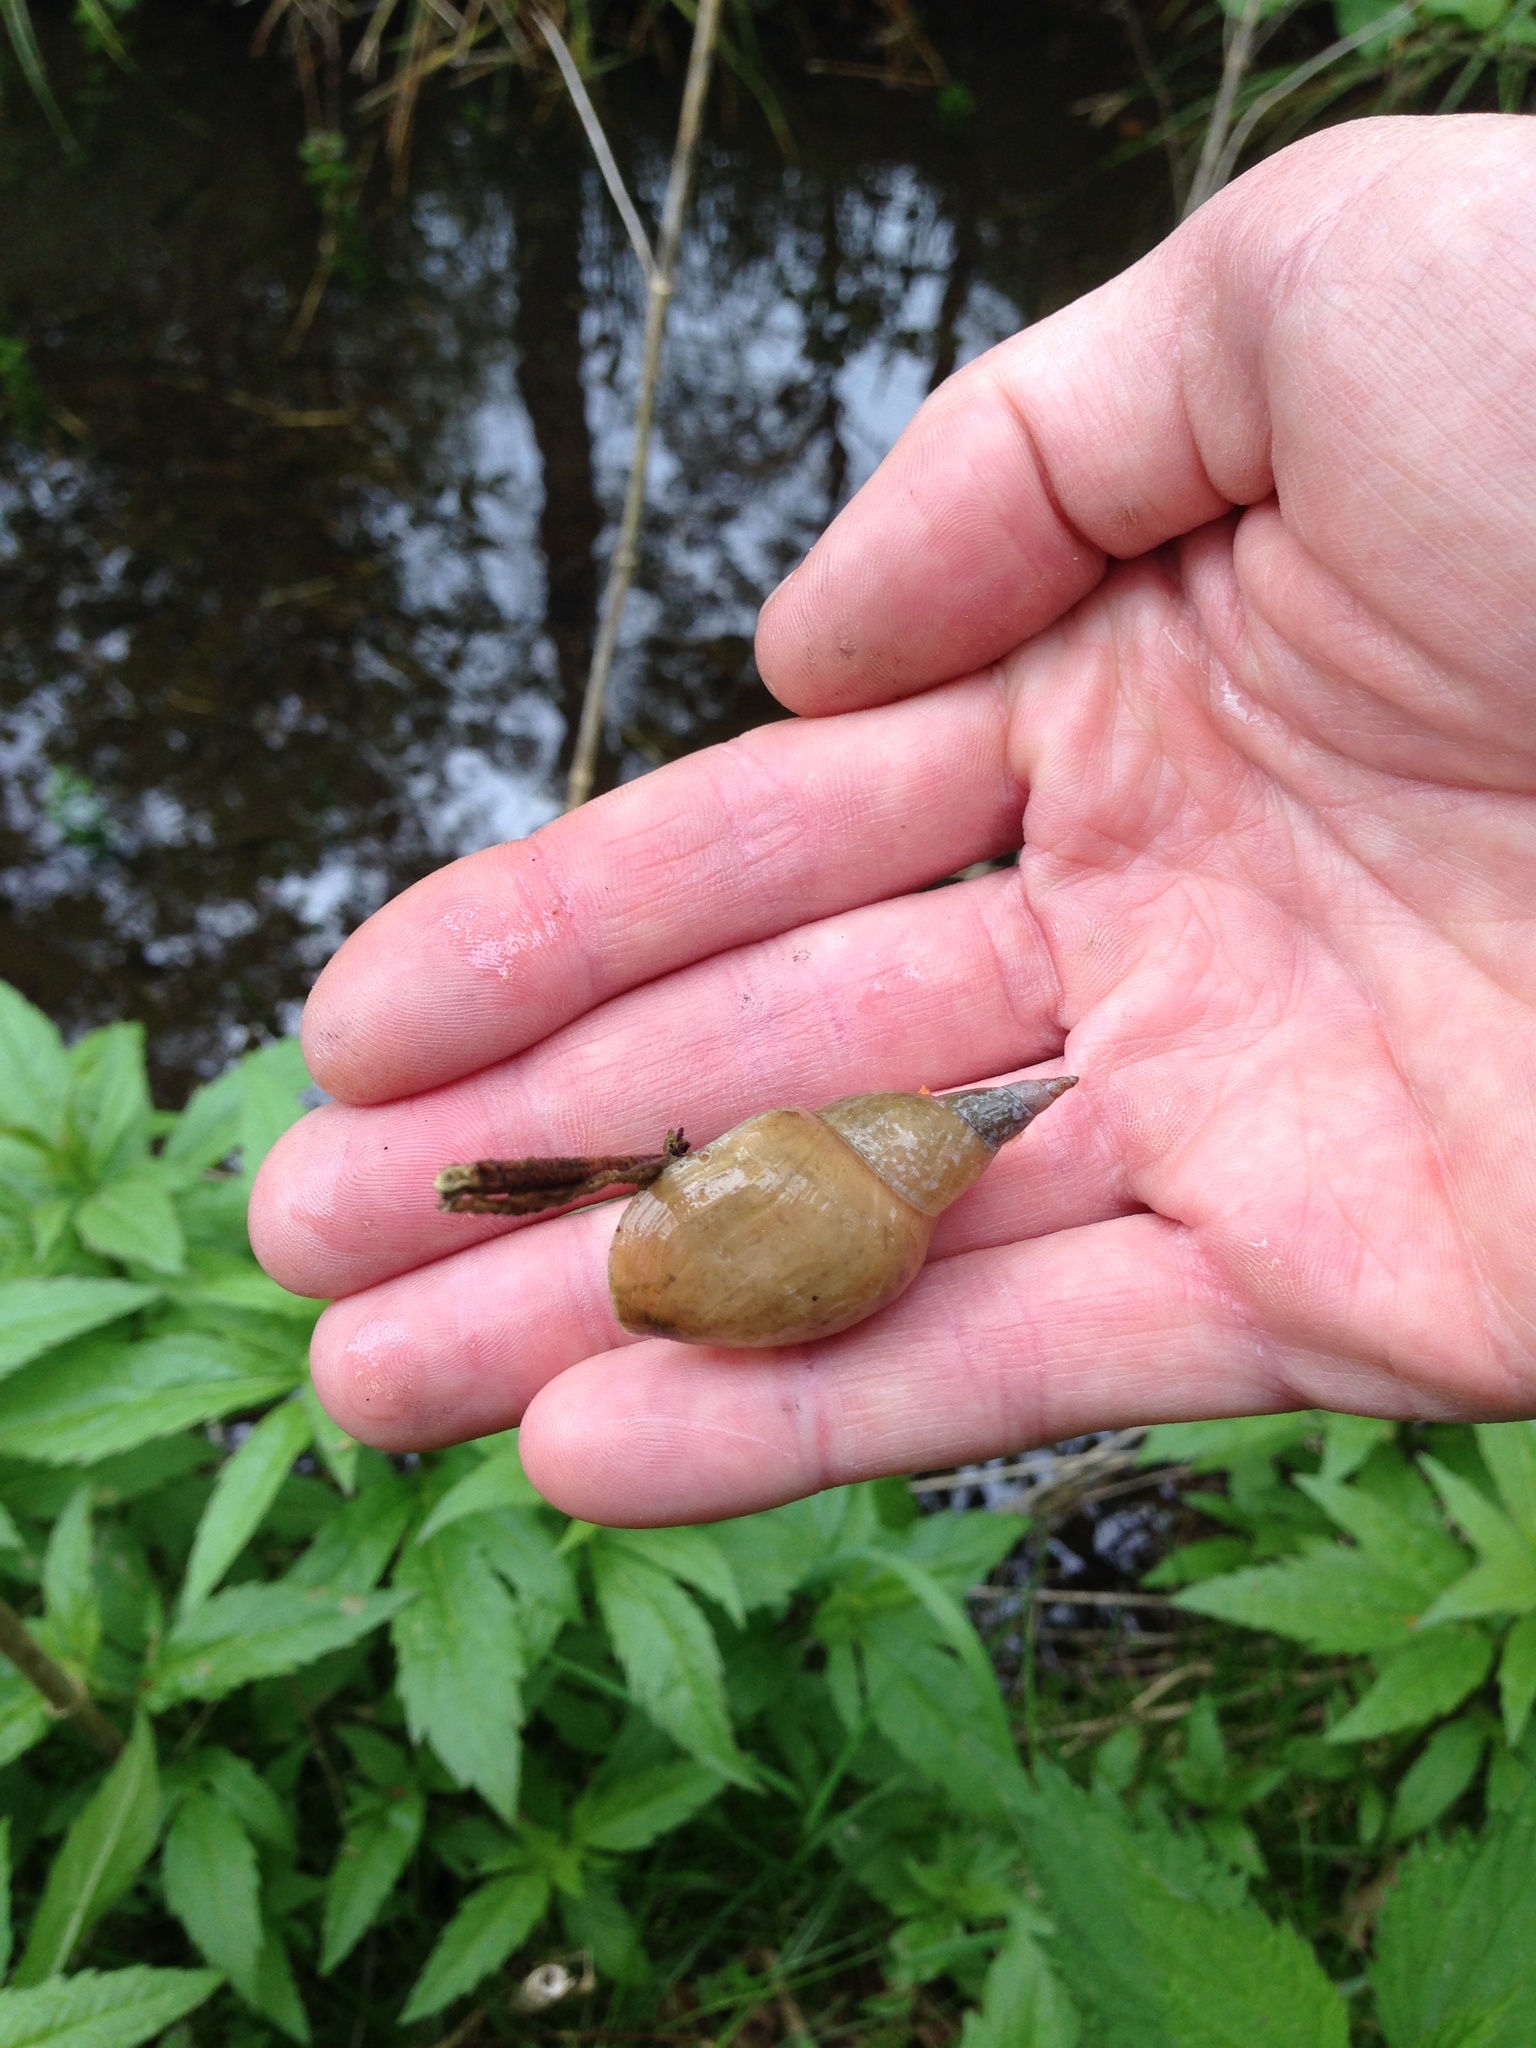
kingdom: Animalia
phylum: Mollusca
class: Gastropoda
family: Lymnaeidae
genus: Lymnaea
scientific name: Lymnaea stagnalis
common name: Great pond snail
